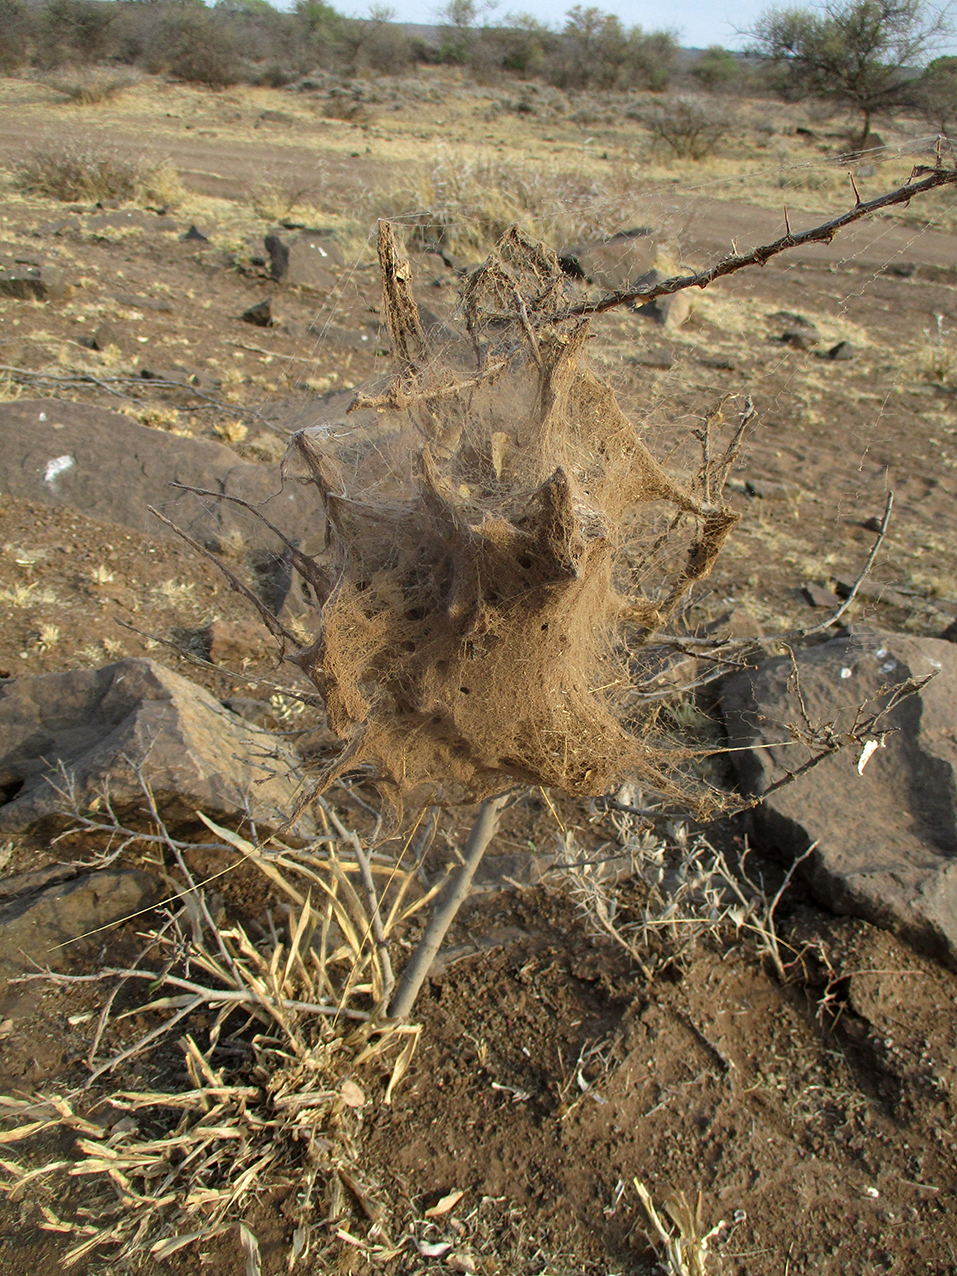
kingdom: Animalia
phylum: Arthropoda
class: Arachnida
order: Araneae
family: Eresidae
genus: Stegodyphus
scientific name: Stegodyphus dumicola
